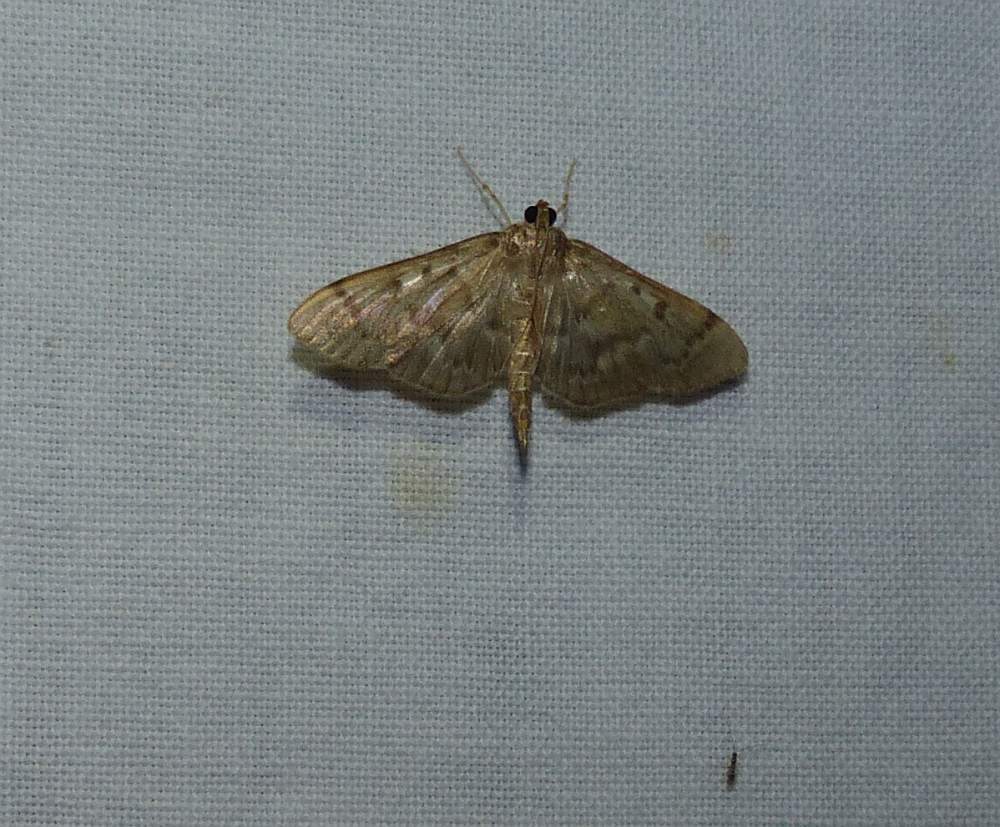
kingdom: Animalia
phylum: Arthropoda
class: Insecta
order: Lepidoptera
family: Crambidae
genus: Herpetogramma
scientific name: Herpetogramma aeglealis
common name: Serpentine webworm moth
